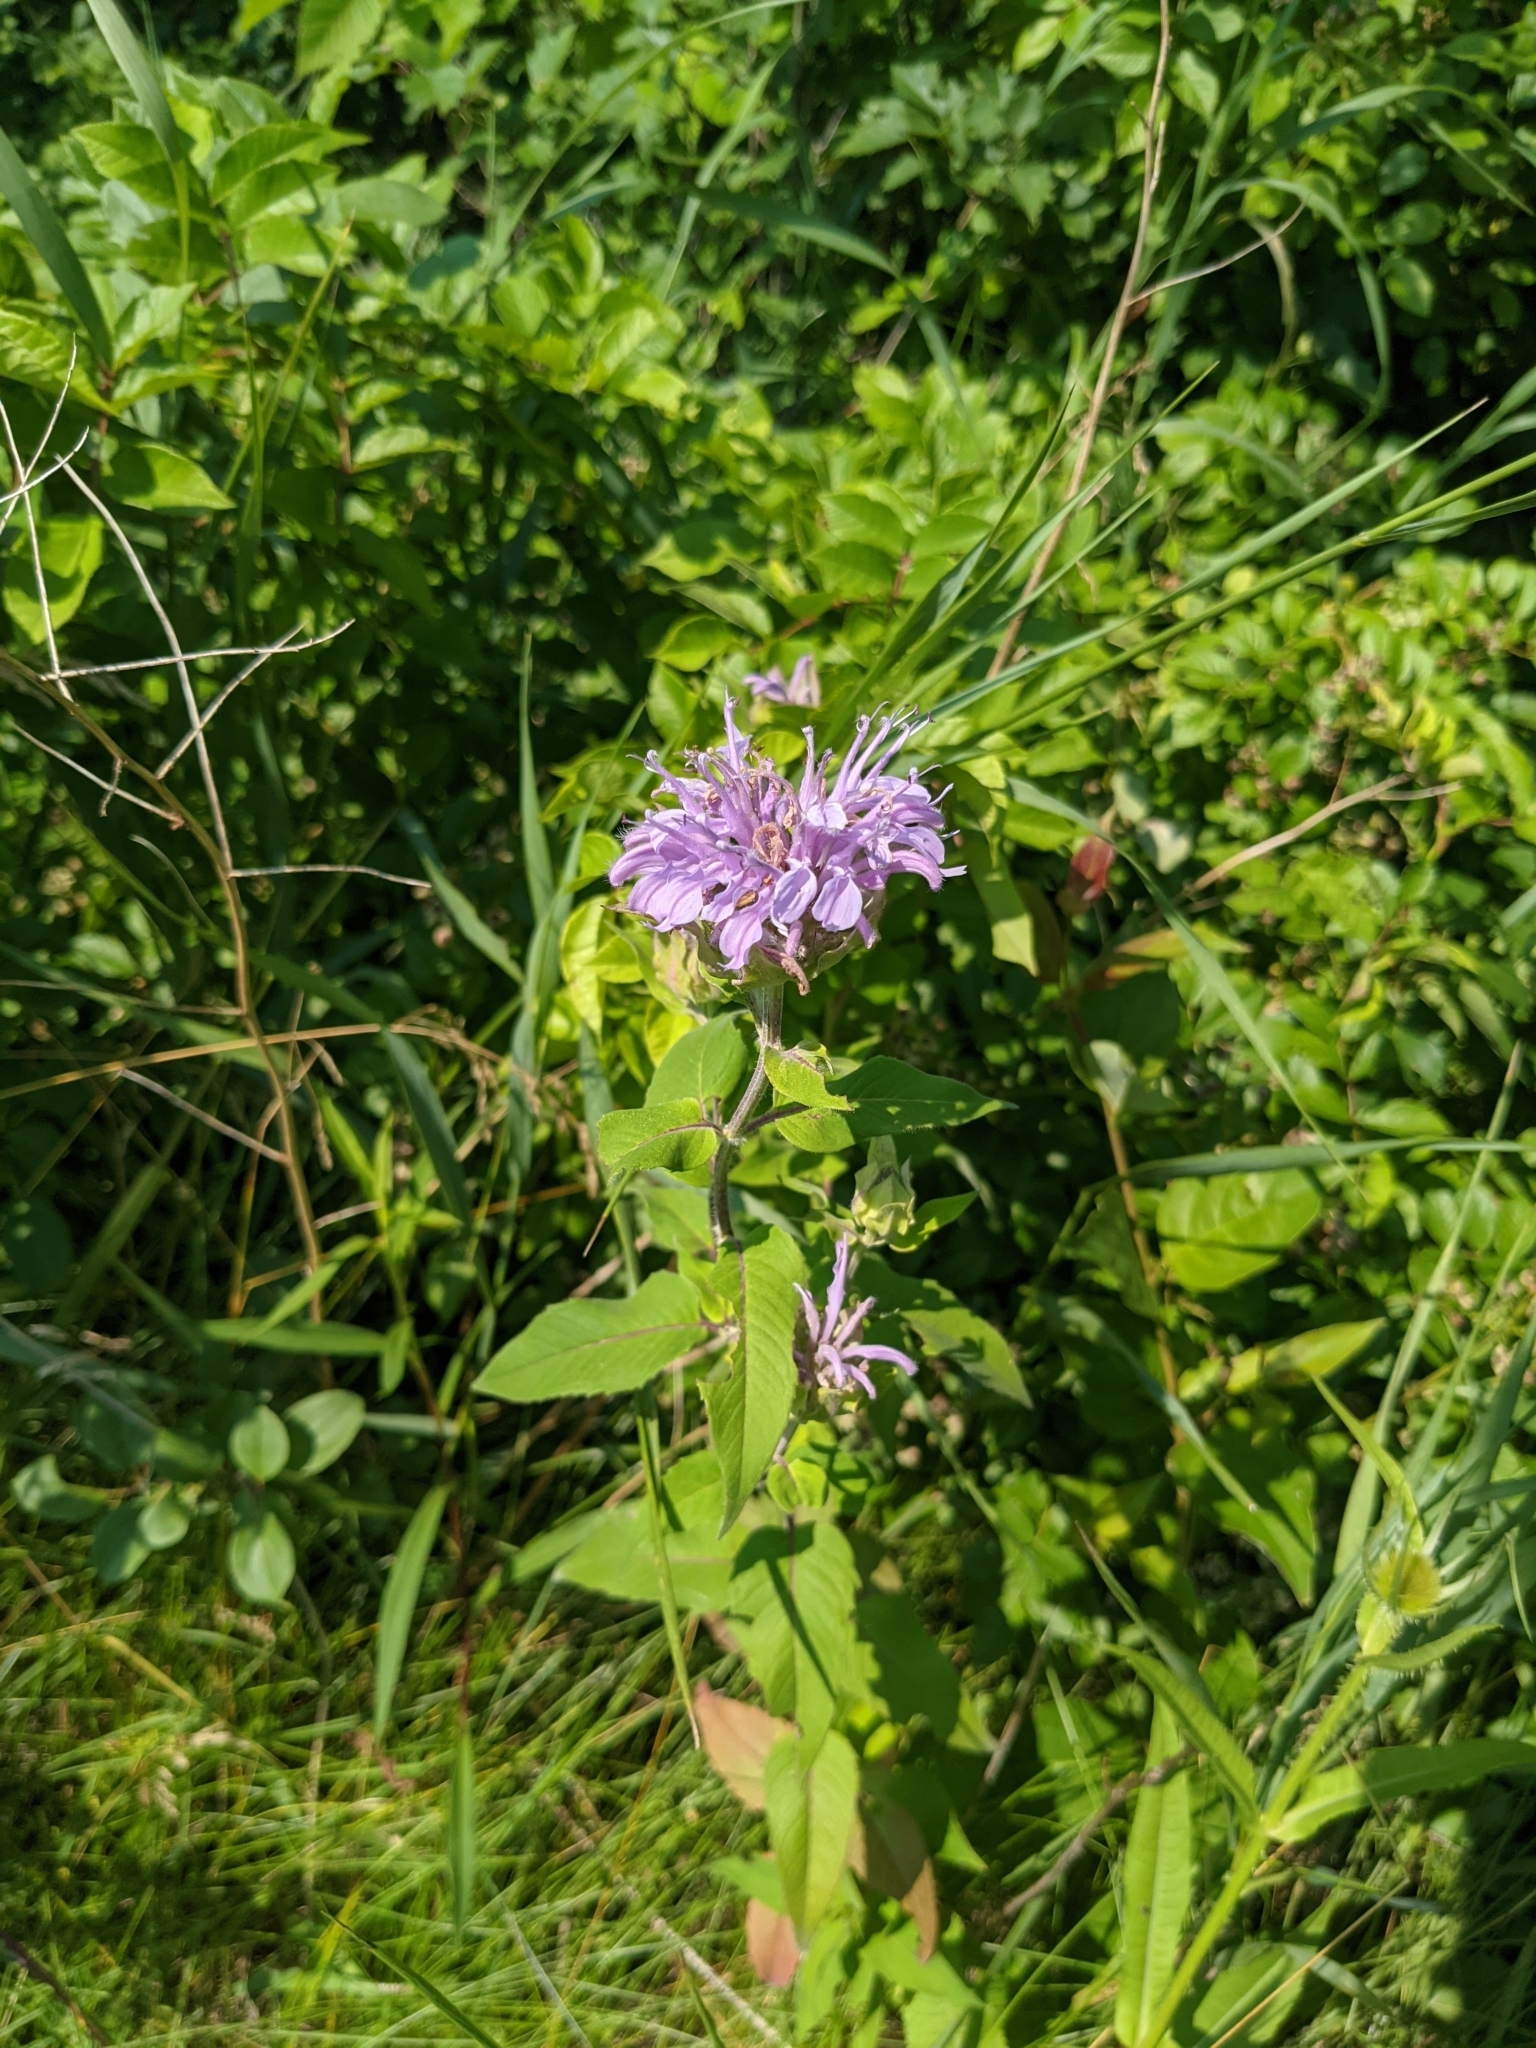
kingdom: Plantae
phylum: Tracheophyta
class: Magnoliopsida
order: Lamiales
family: Lamiaceae
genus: Monarda
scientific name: Monarda fistulosa
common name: Purple beebalm
